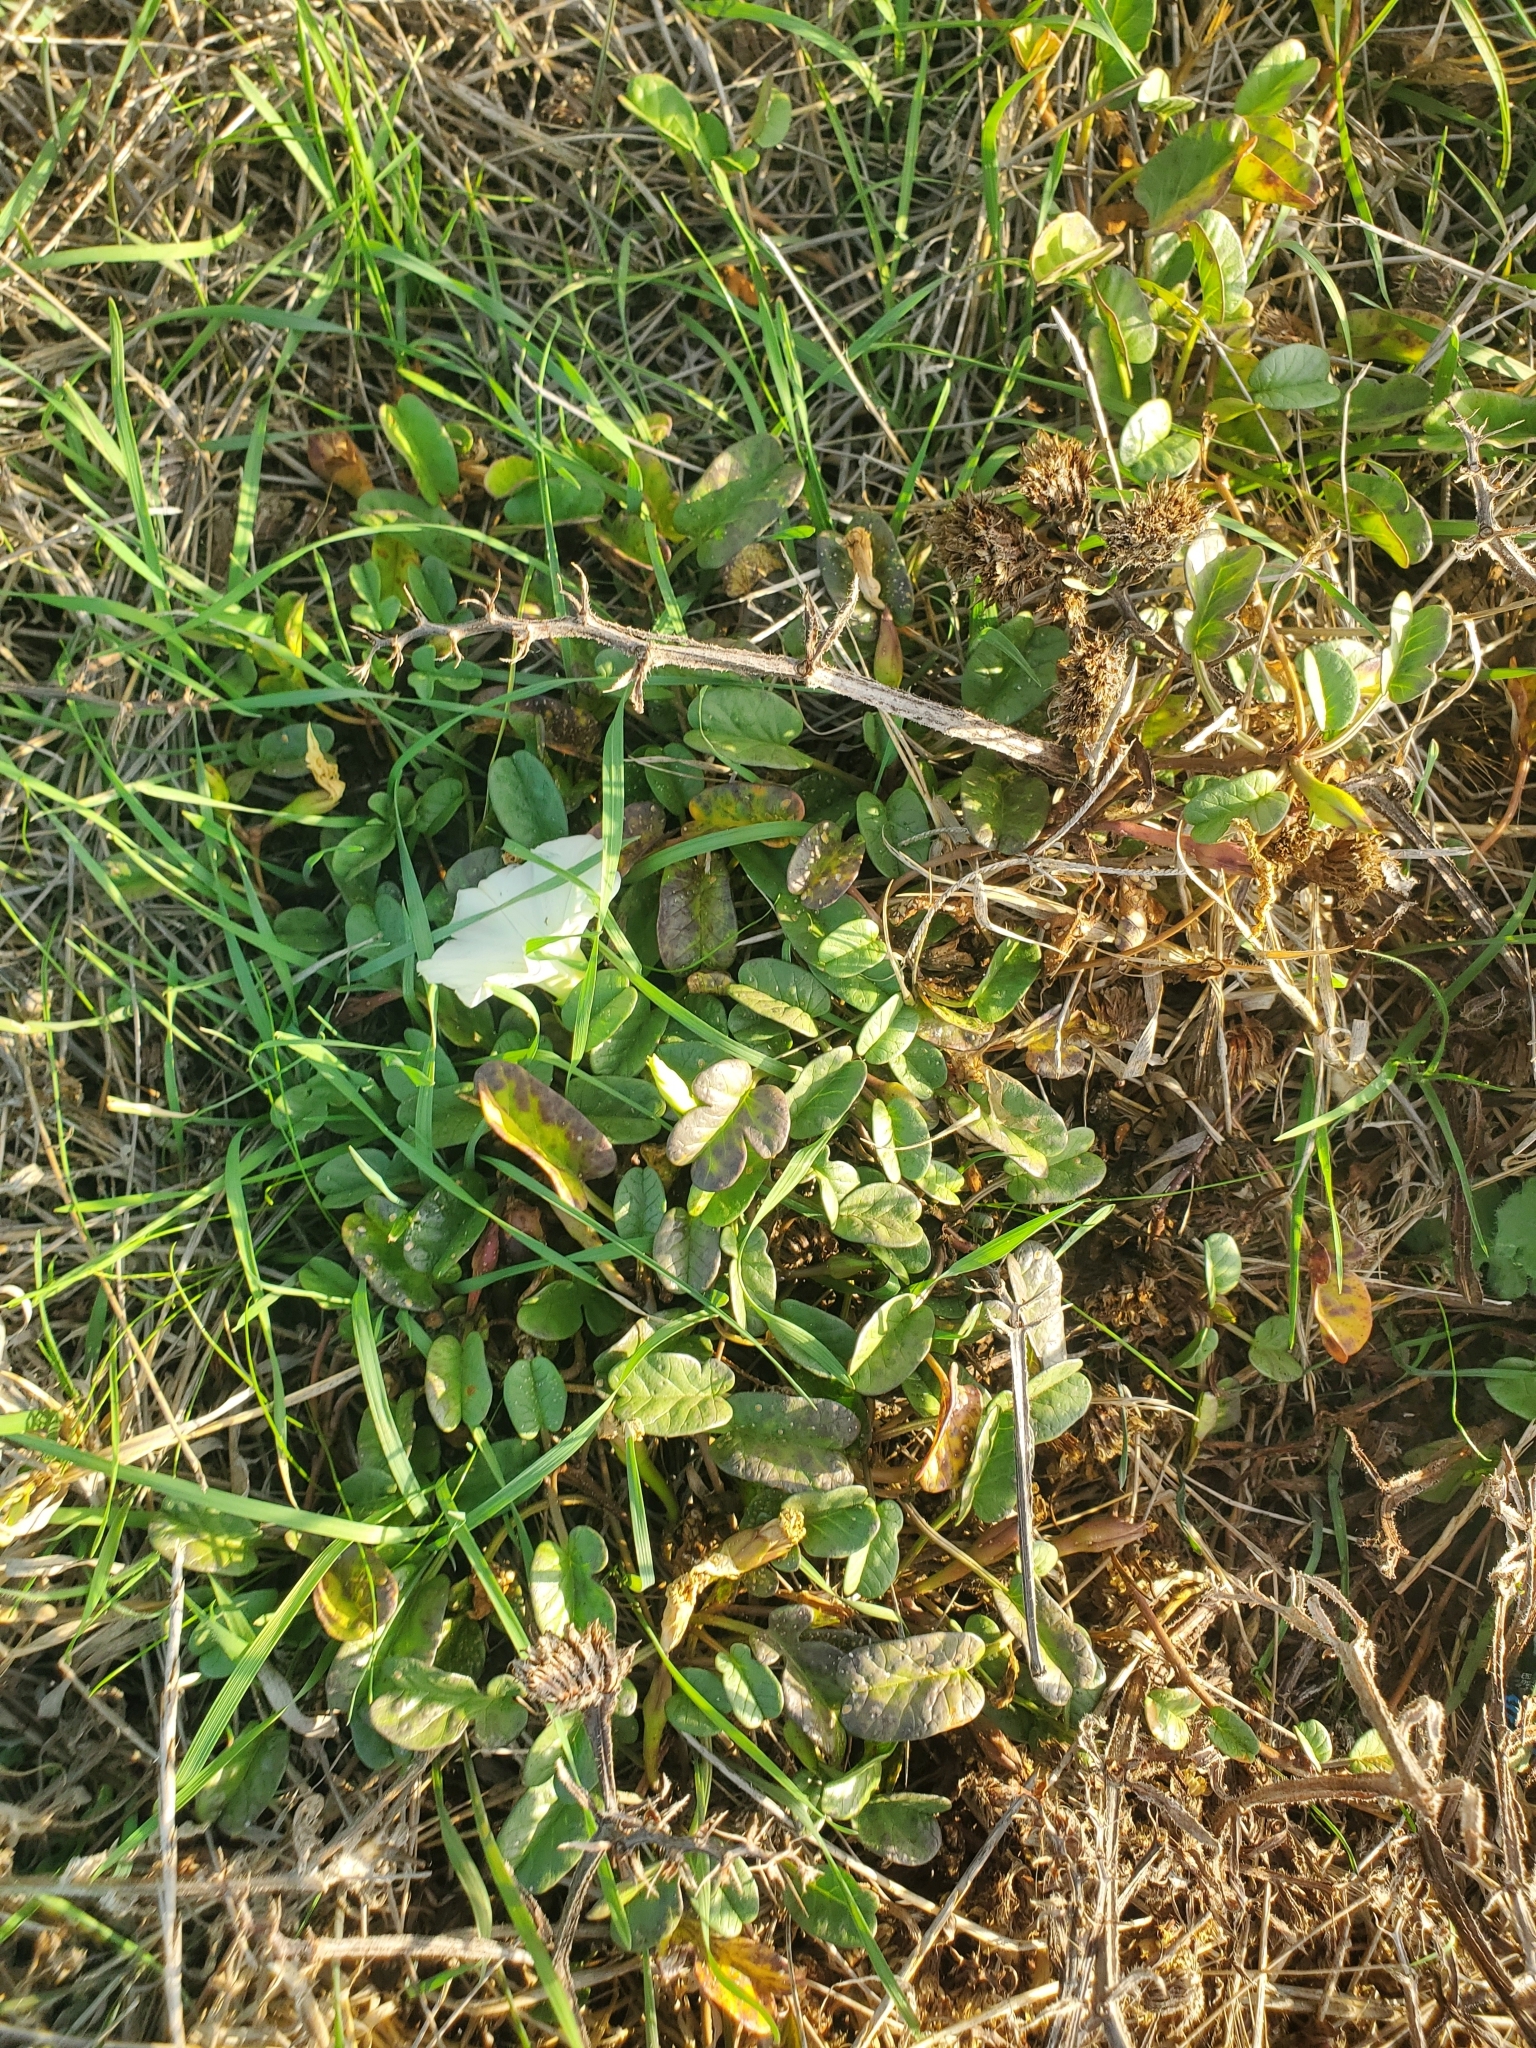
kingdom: Plantae
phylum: Tracheophyta
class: Magnoliopsida
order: Solanales
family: Convolvulaceae
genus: Ipomoea
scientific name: Ipomoea imperati
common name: Fiddle-leaf morning-glory
